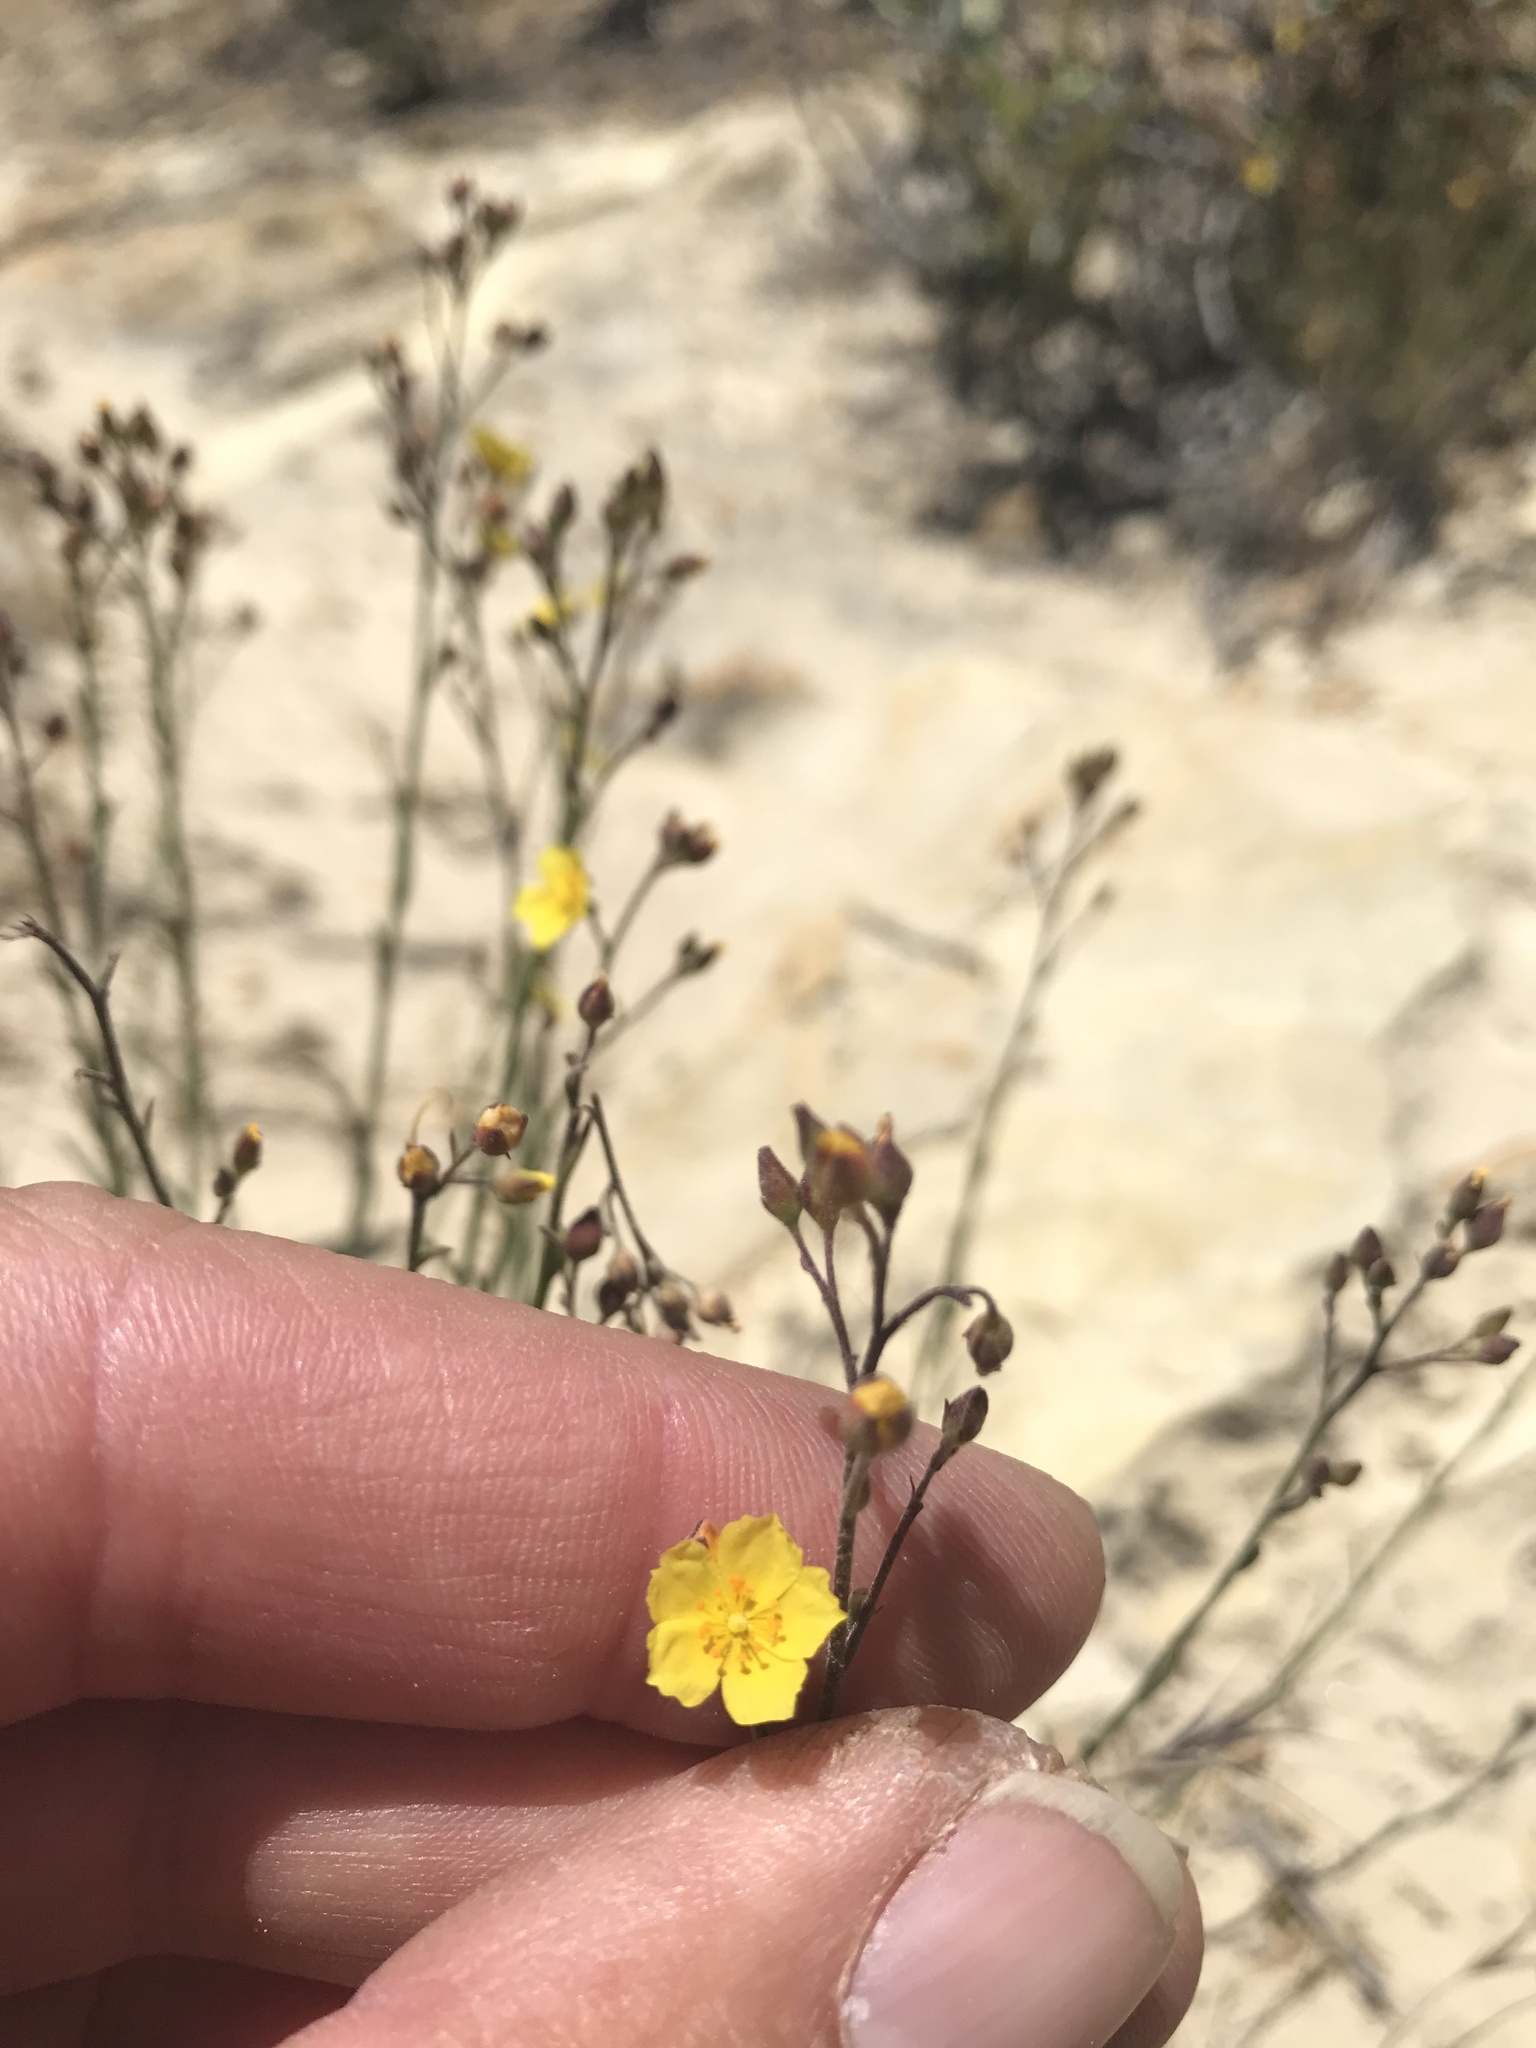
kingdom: Plantae
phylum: Tracheophyta
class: Magnoliopsida
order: Malvales
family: Cistaceae
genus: Crocanthemum
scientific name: Crocanthemum scoparium
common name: Broom-rose
